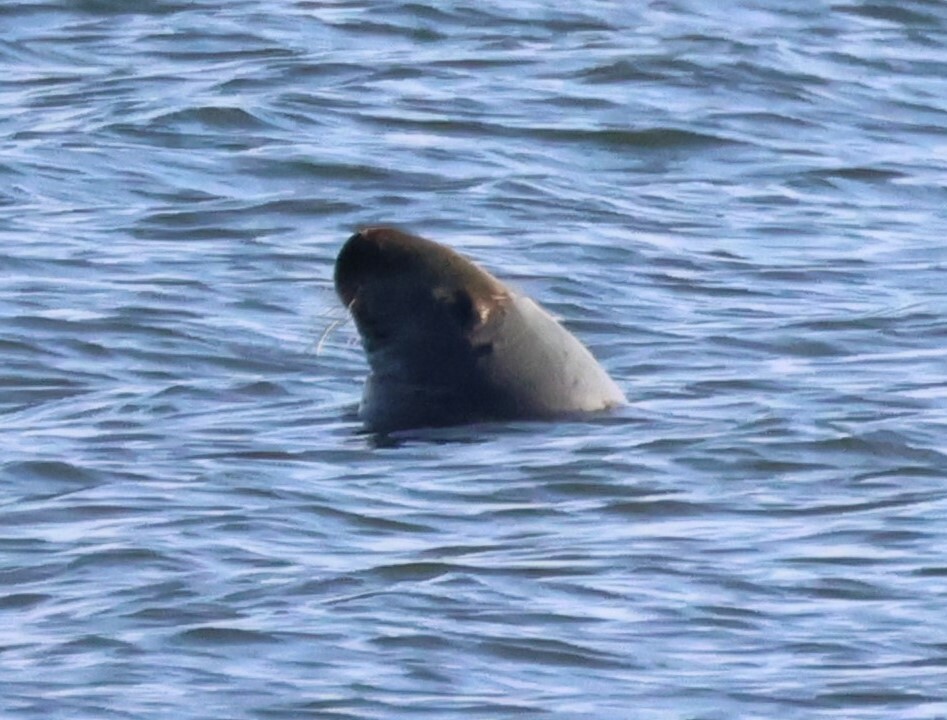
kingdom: Animalia
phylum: Chordata
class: Mammalia
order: Carnivora
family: Phocidae
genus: Halichoerus
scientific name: Halichoerus grypus
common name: Grey seal
